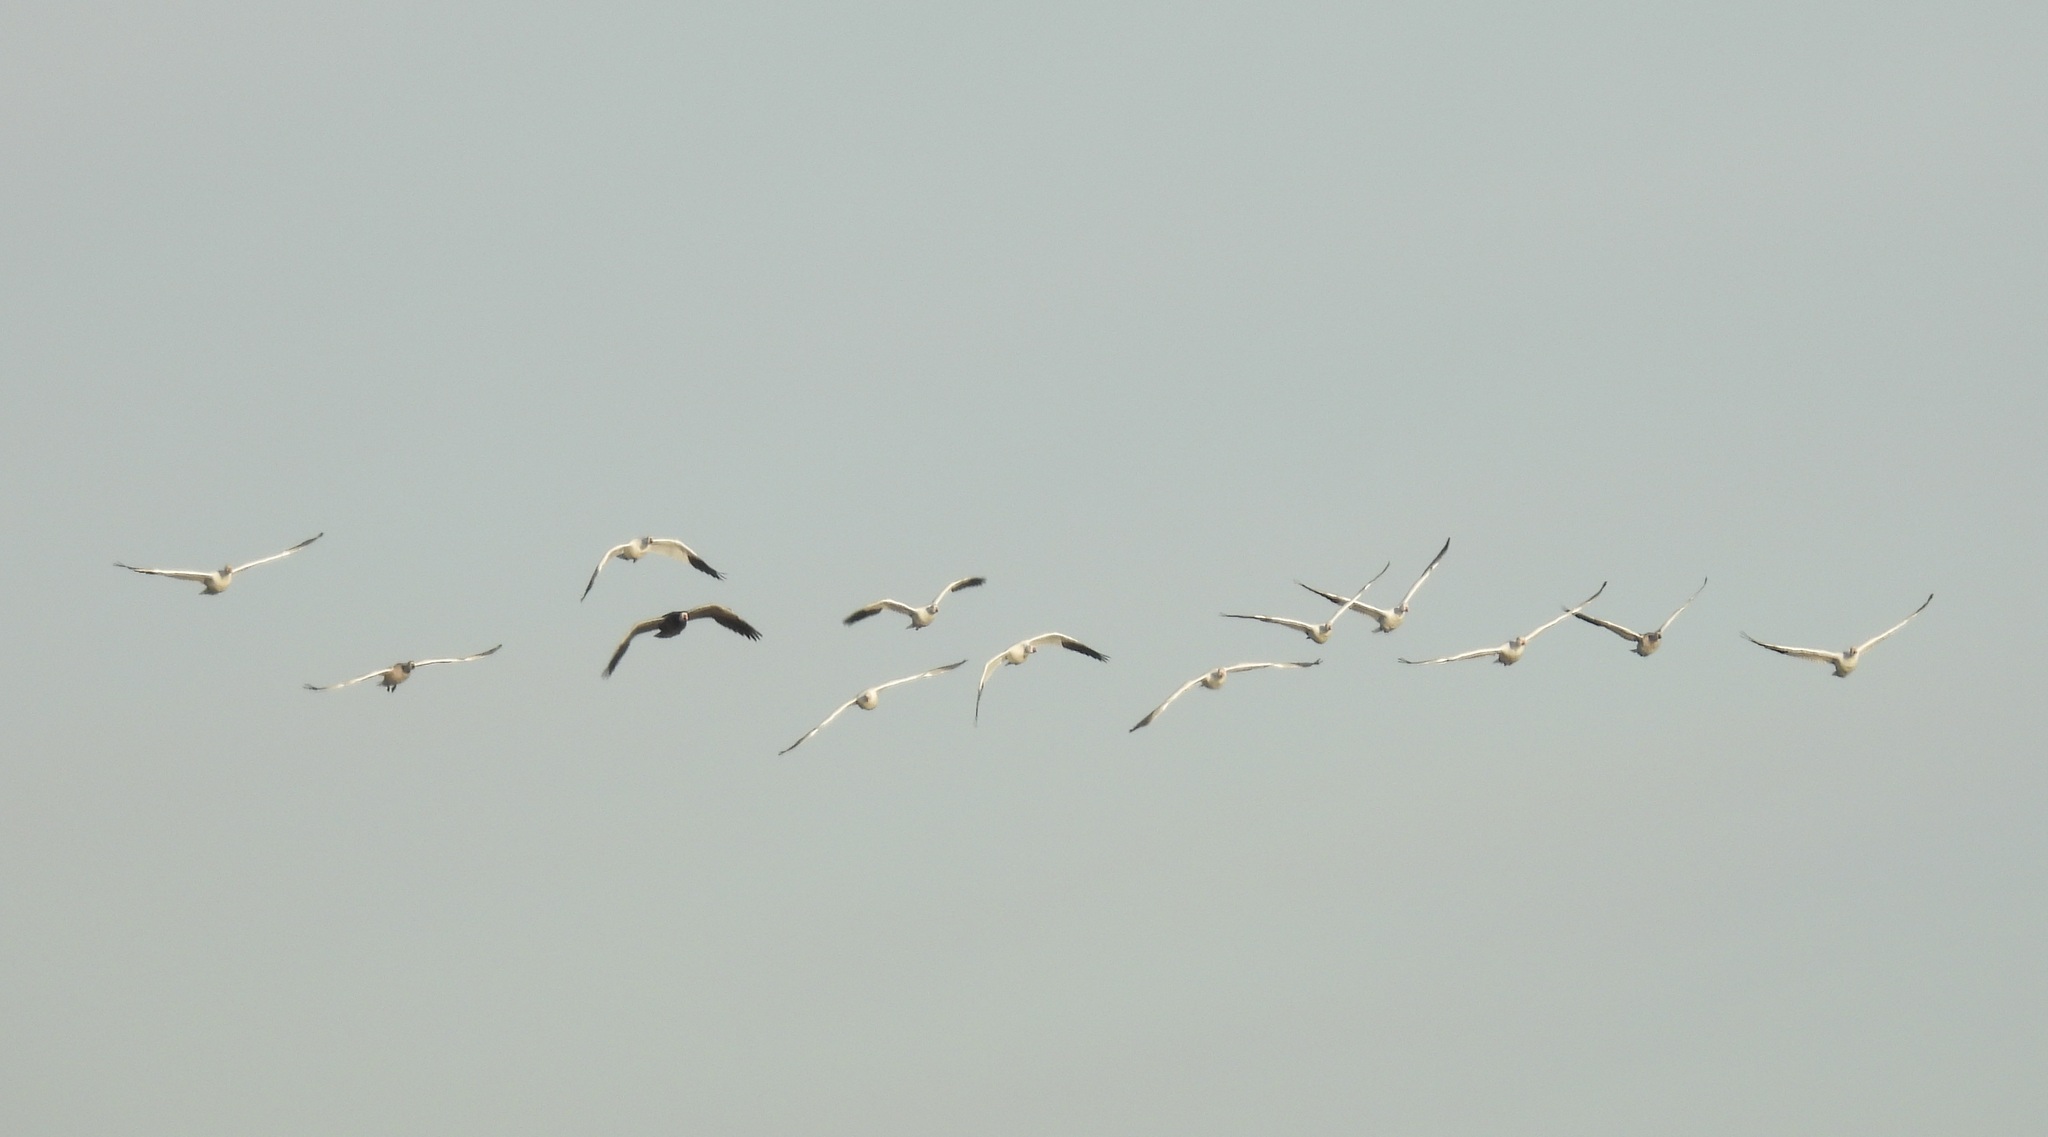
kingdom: Animalia
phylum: Chordata
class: Aves
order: Anseriformes
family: Anatidae
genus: Anser
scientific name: Anser caerulescens
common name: Snow goose
